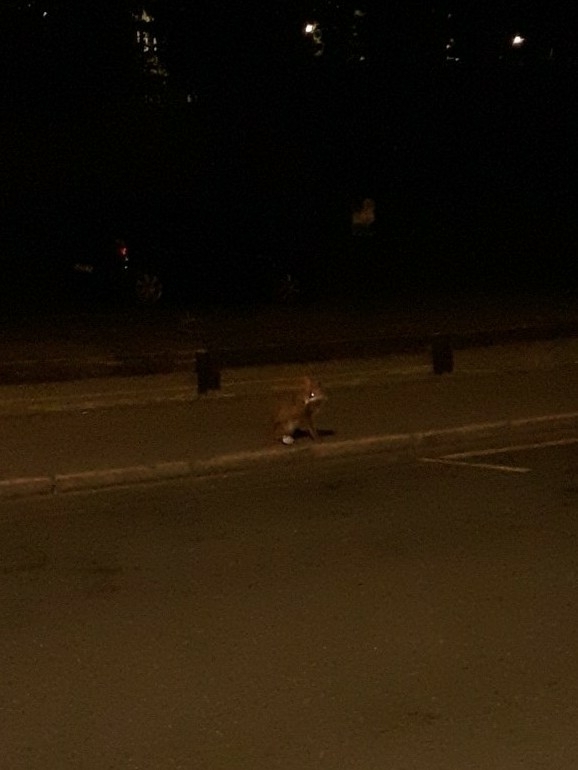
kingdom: Animalia
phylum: Chordata
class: Mammalia
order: Carnivora
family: Canidae
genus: Vulpes
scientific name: Vulpes vulpes
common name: Red fox
